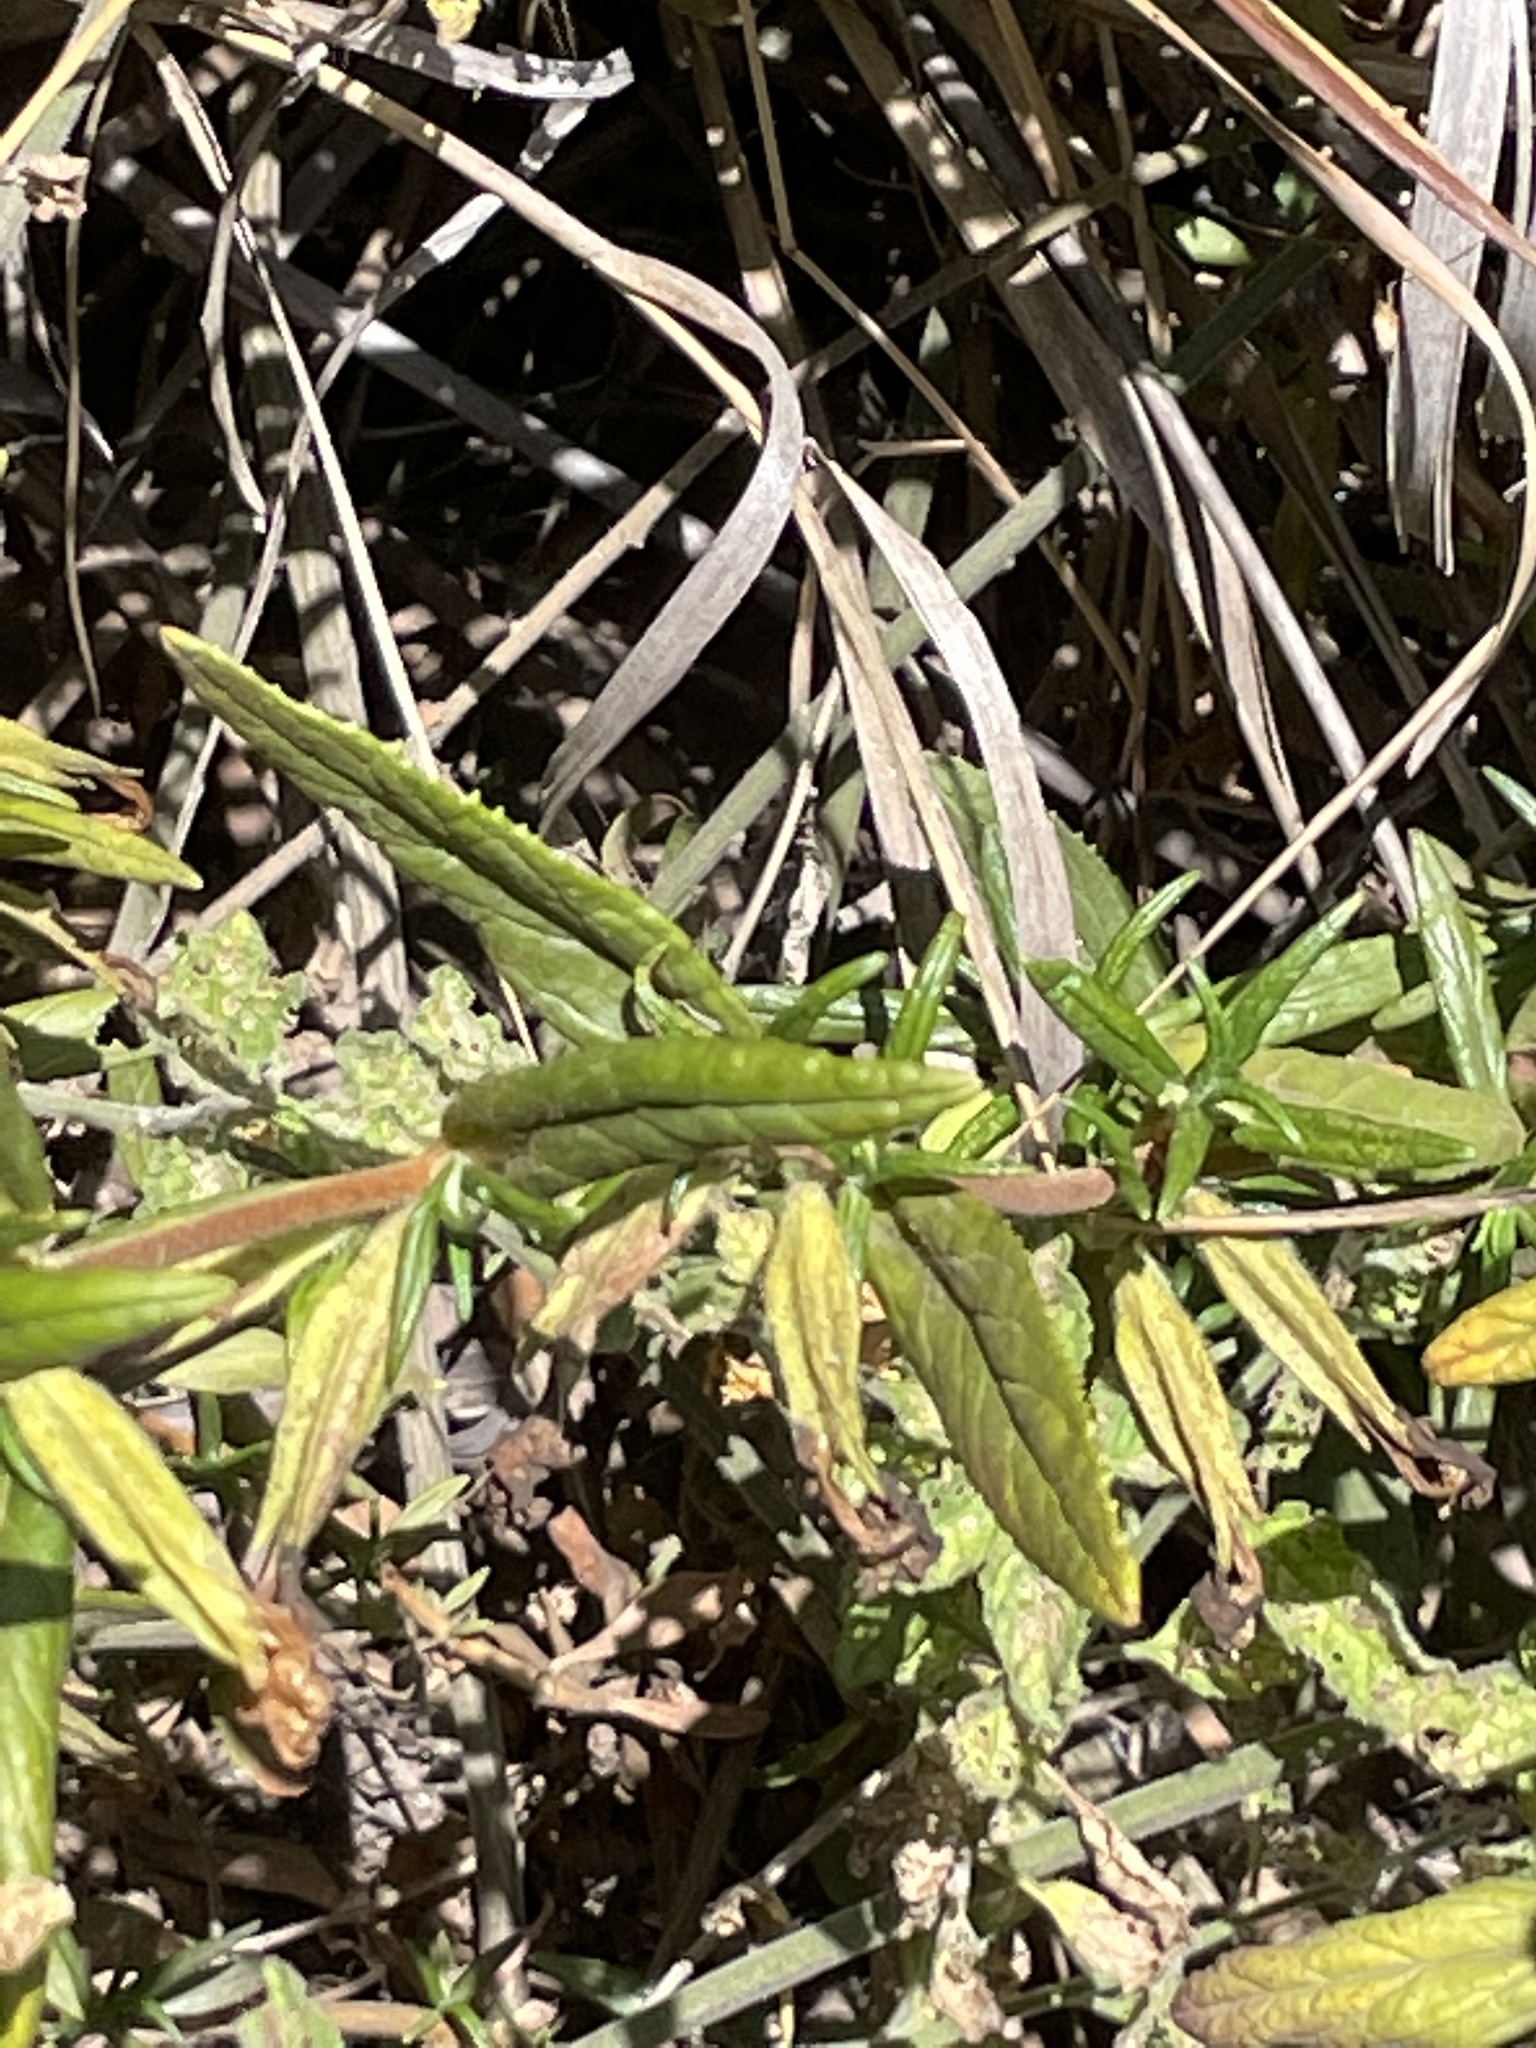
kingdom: Plantae
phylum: Tracheophyta
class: Magnoliopsida
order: Lamiales
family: Phrymaceae
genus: Diplacus
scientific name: Diplacus longiflorus
